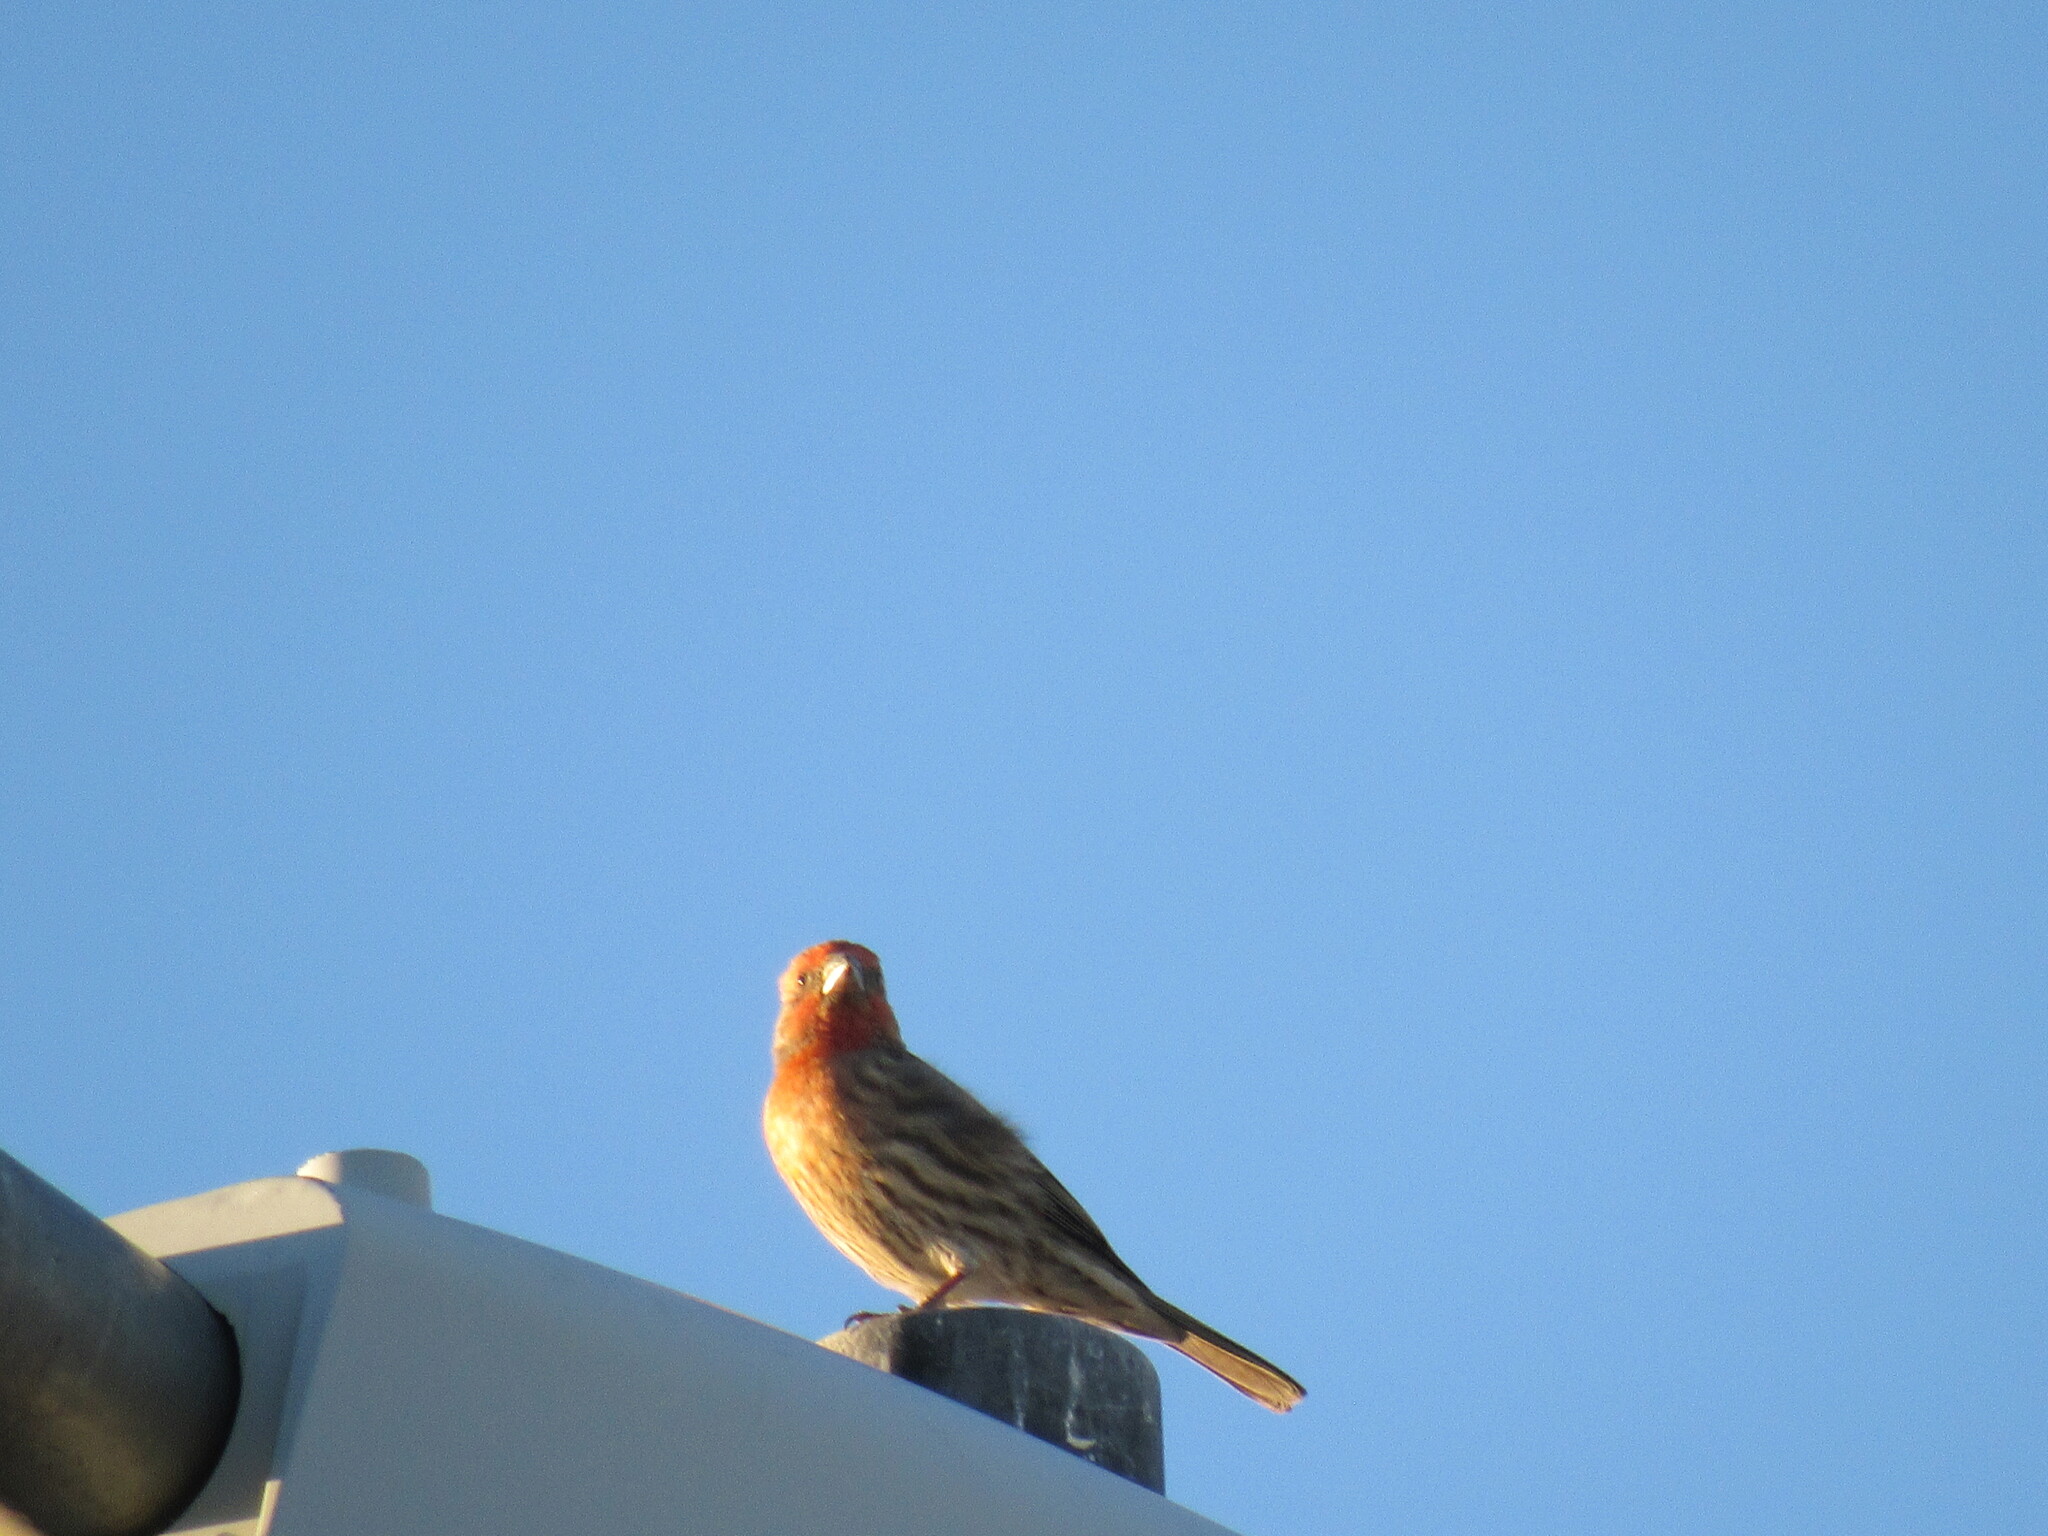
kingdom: Animalia
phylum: Chordata
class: Aves
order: Passeriformes
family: Fringillidae
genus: Haemorhous
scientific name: Haemorhous mexicanus
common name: House finch
